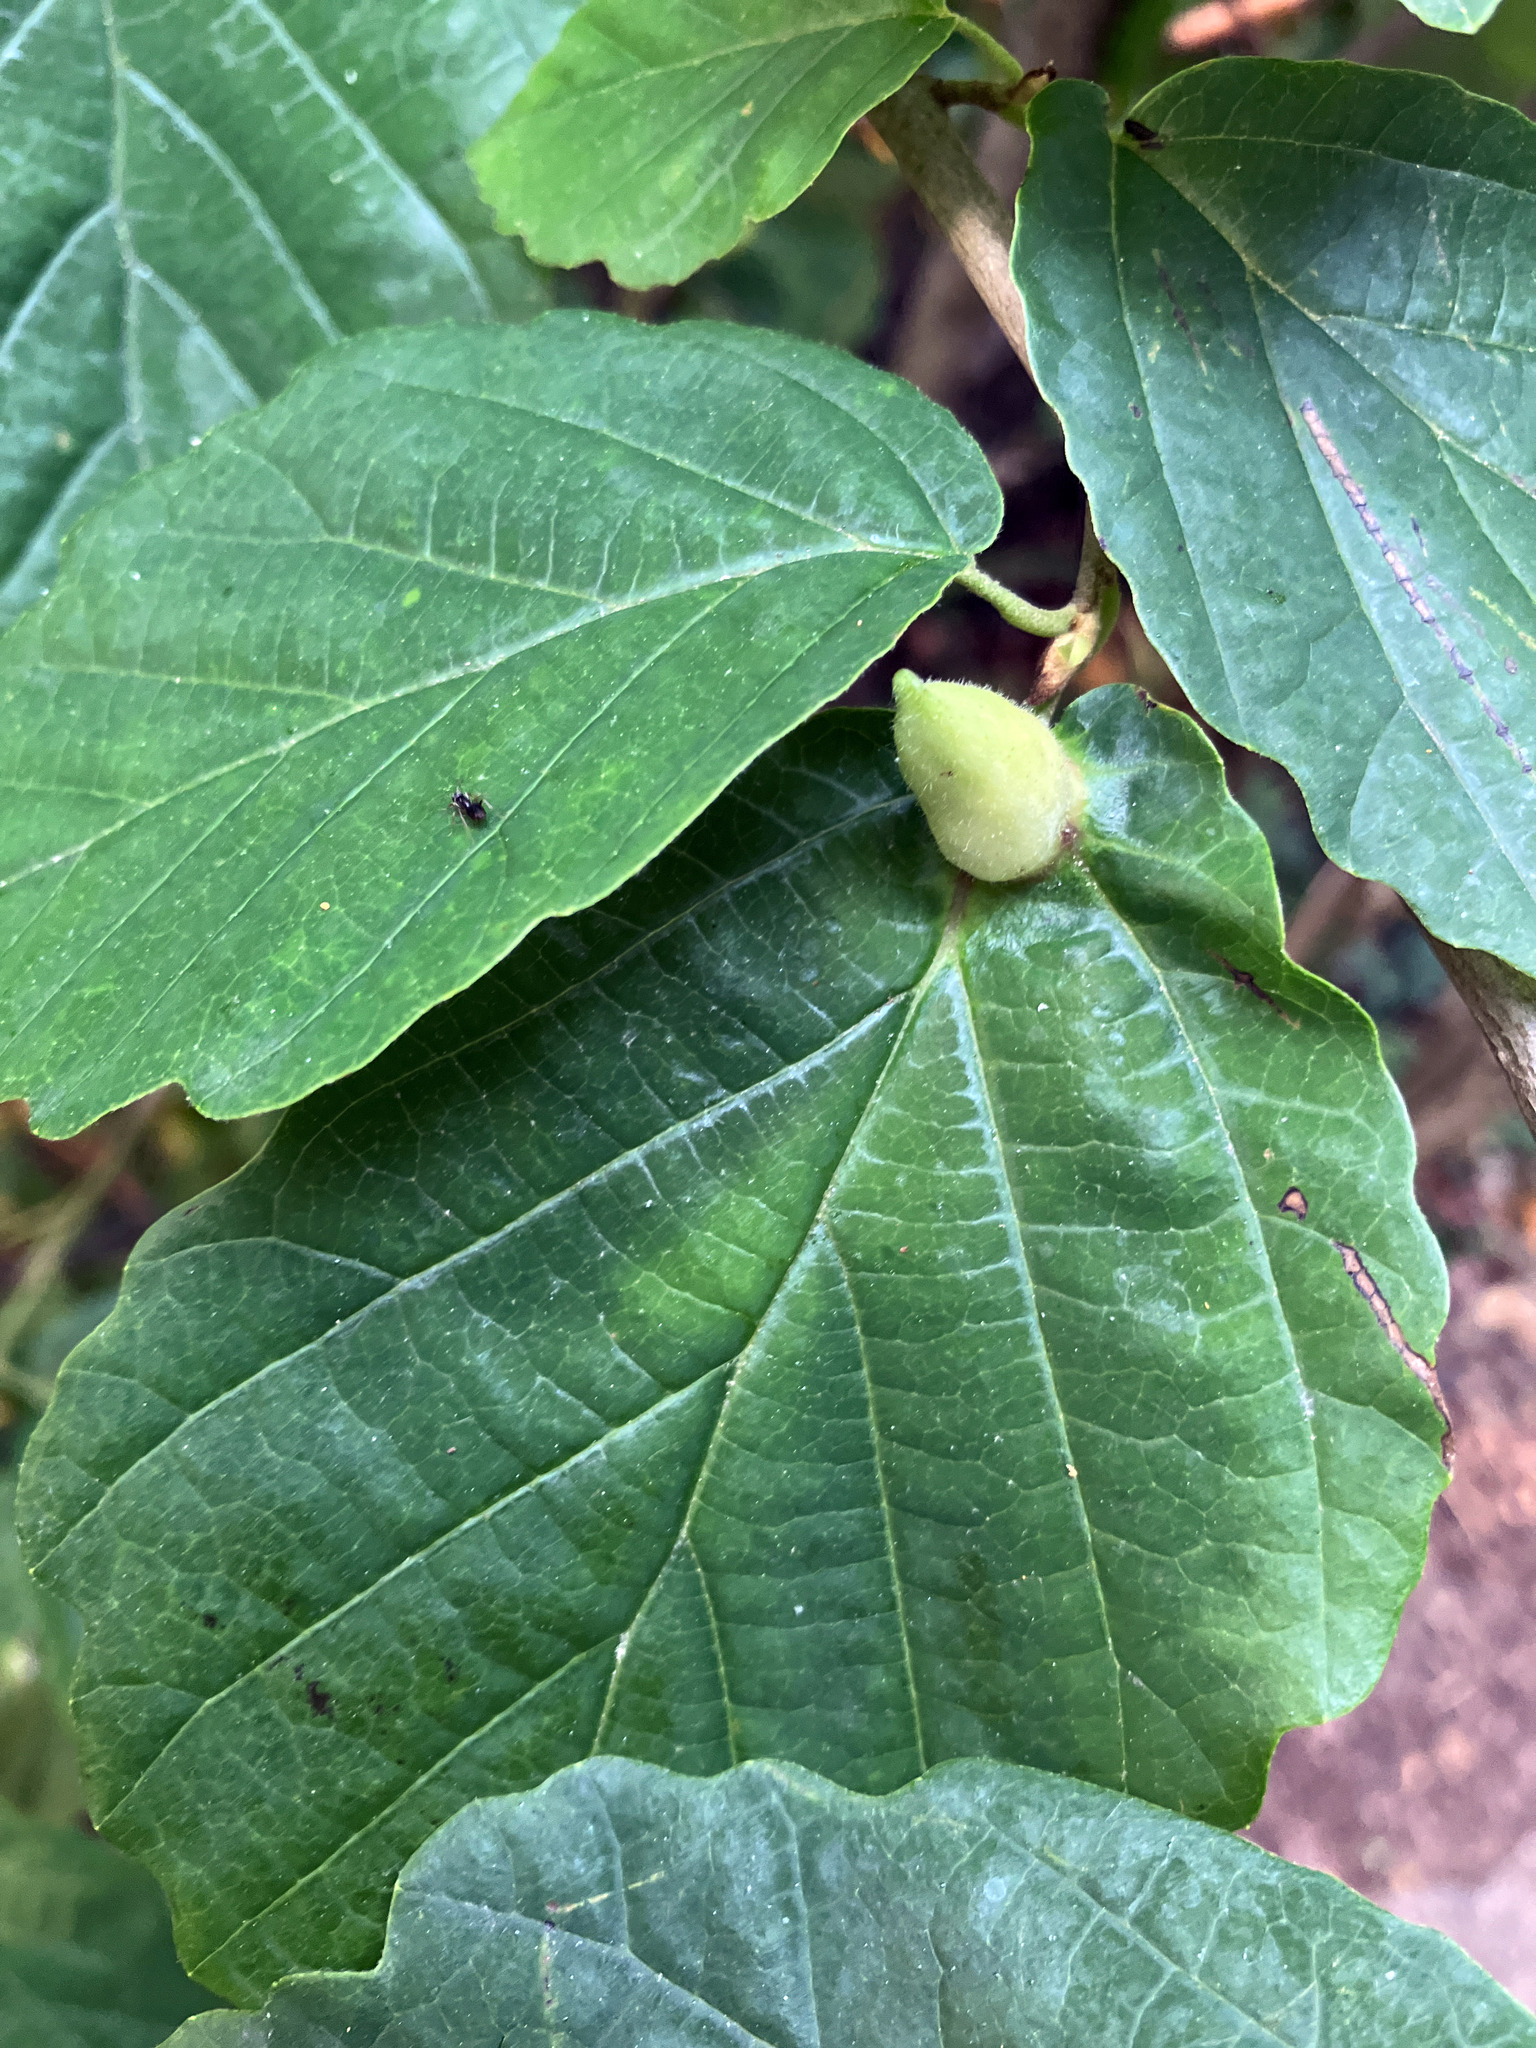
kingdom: Animalia
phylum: Arthropoda
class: Insecta
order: Hemiptera
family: Aphididae
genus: Hormaphis
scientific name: Hormaphis hamamelidis
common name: Witch-hazel cone gall aphid
